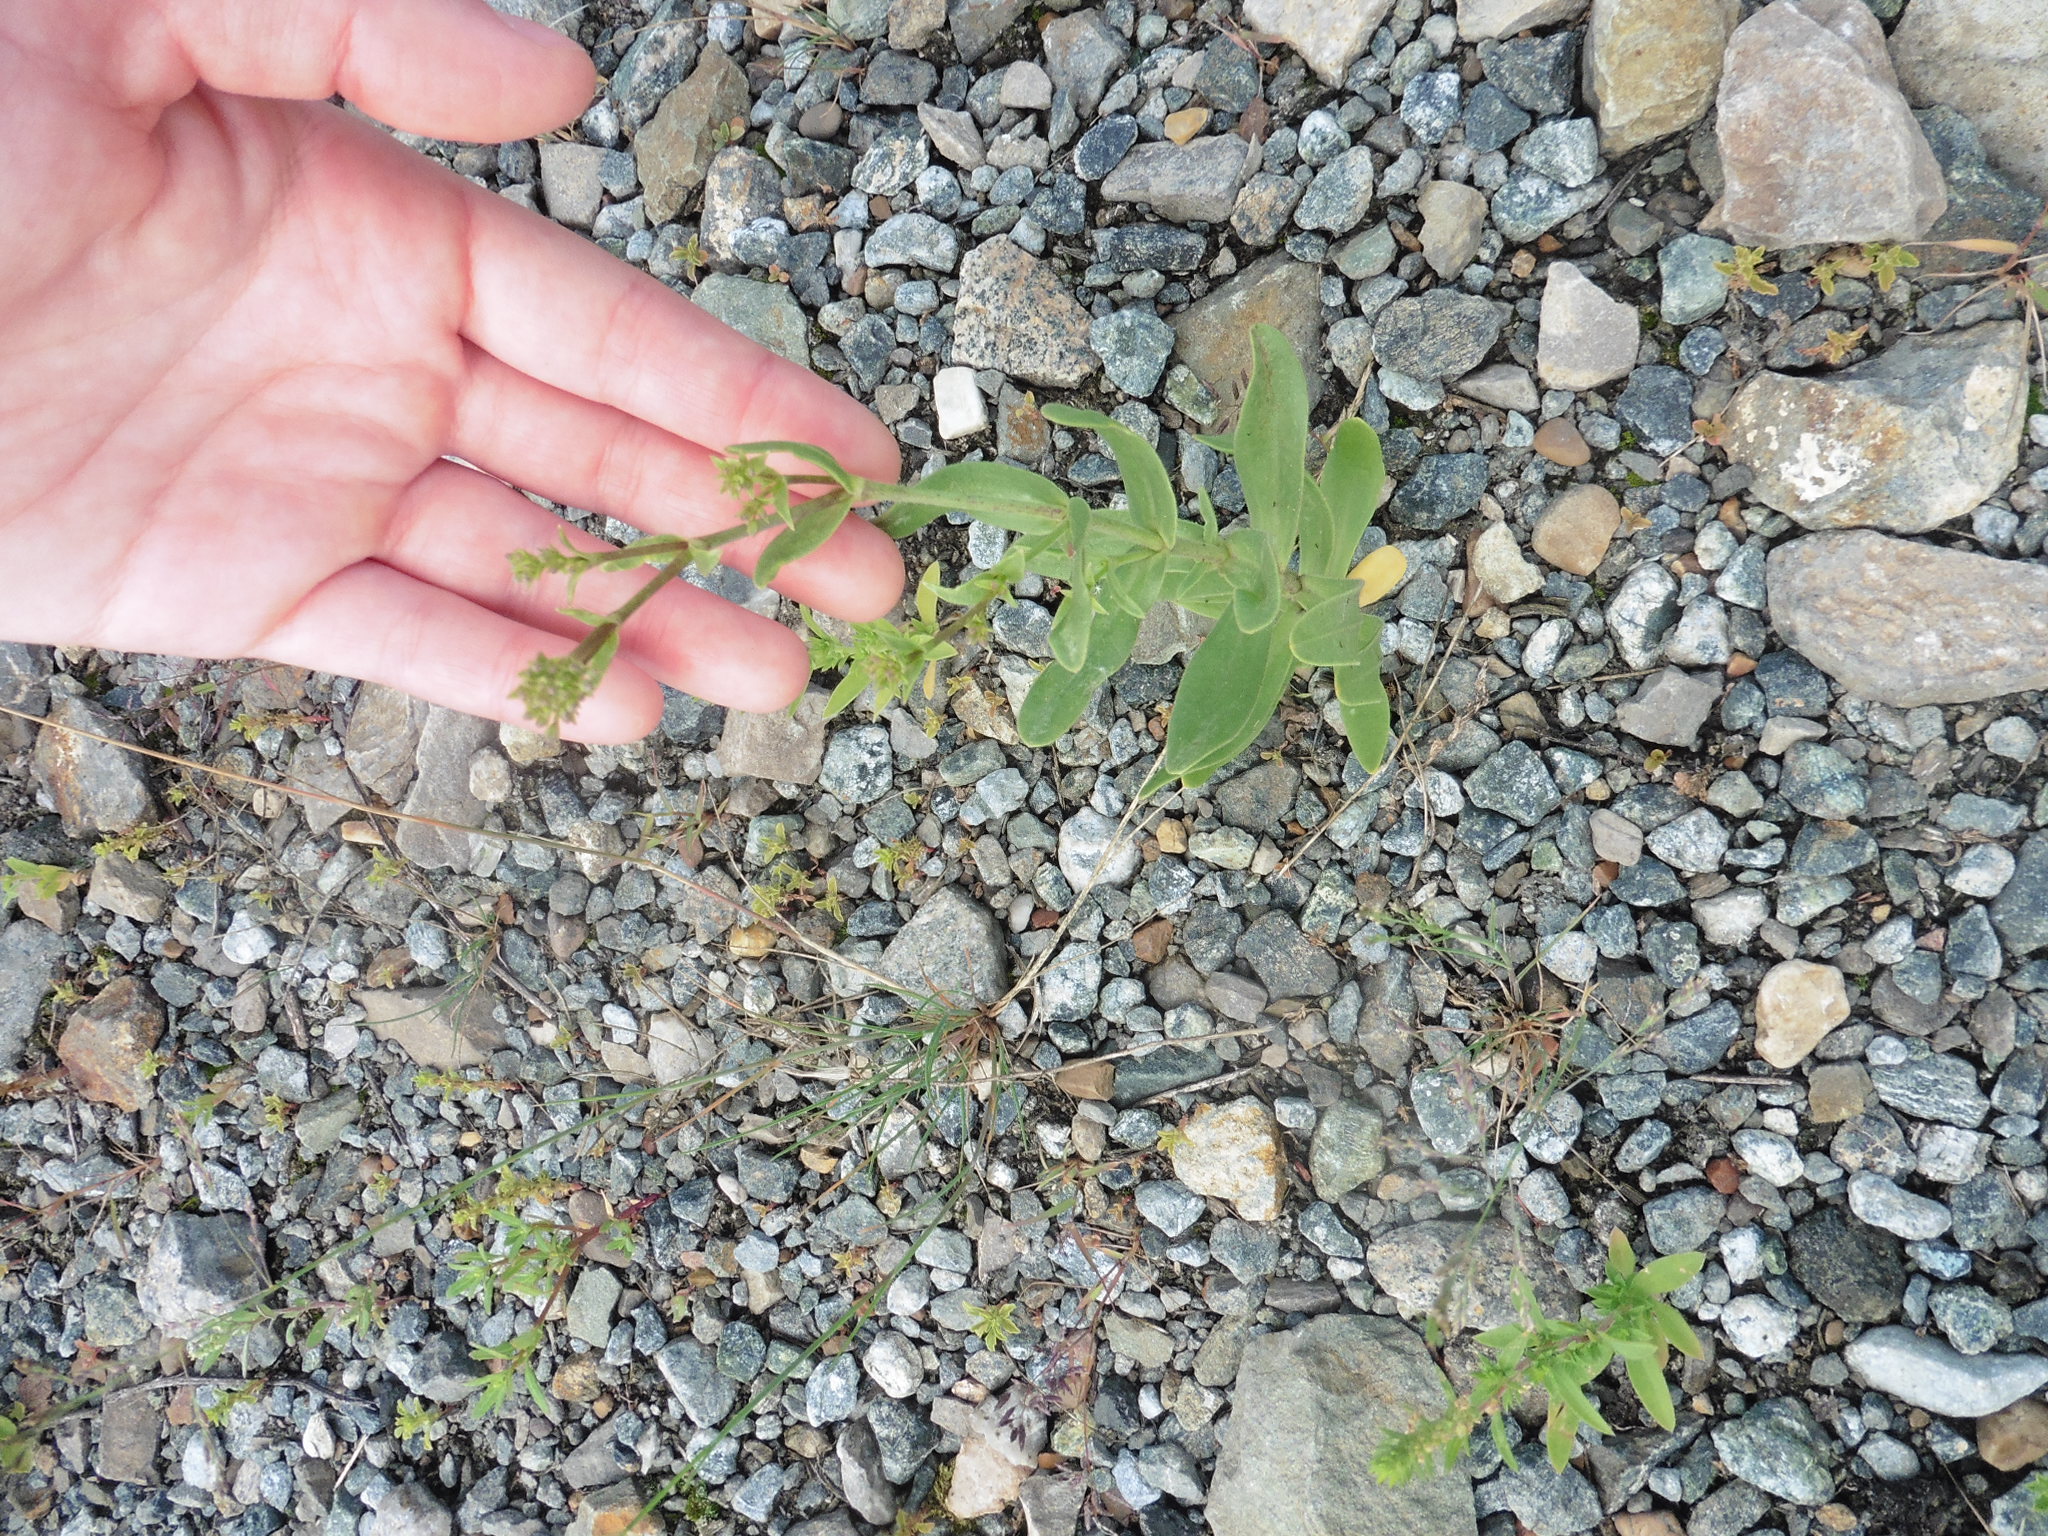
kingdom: Plantae
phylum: Tracheophyta
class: Magnoliopsida
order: Caryophyllales
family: Caryophyllaceae
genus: Gypsophila
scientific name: Gypsophila perfoliata
